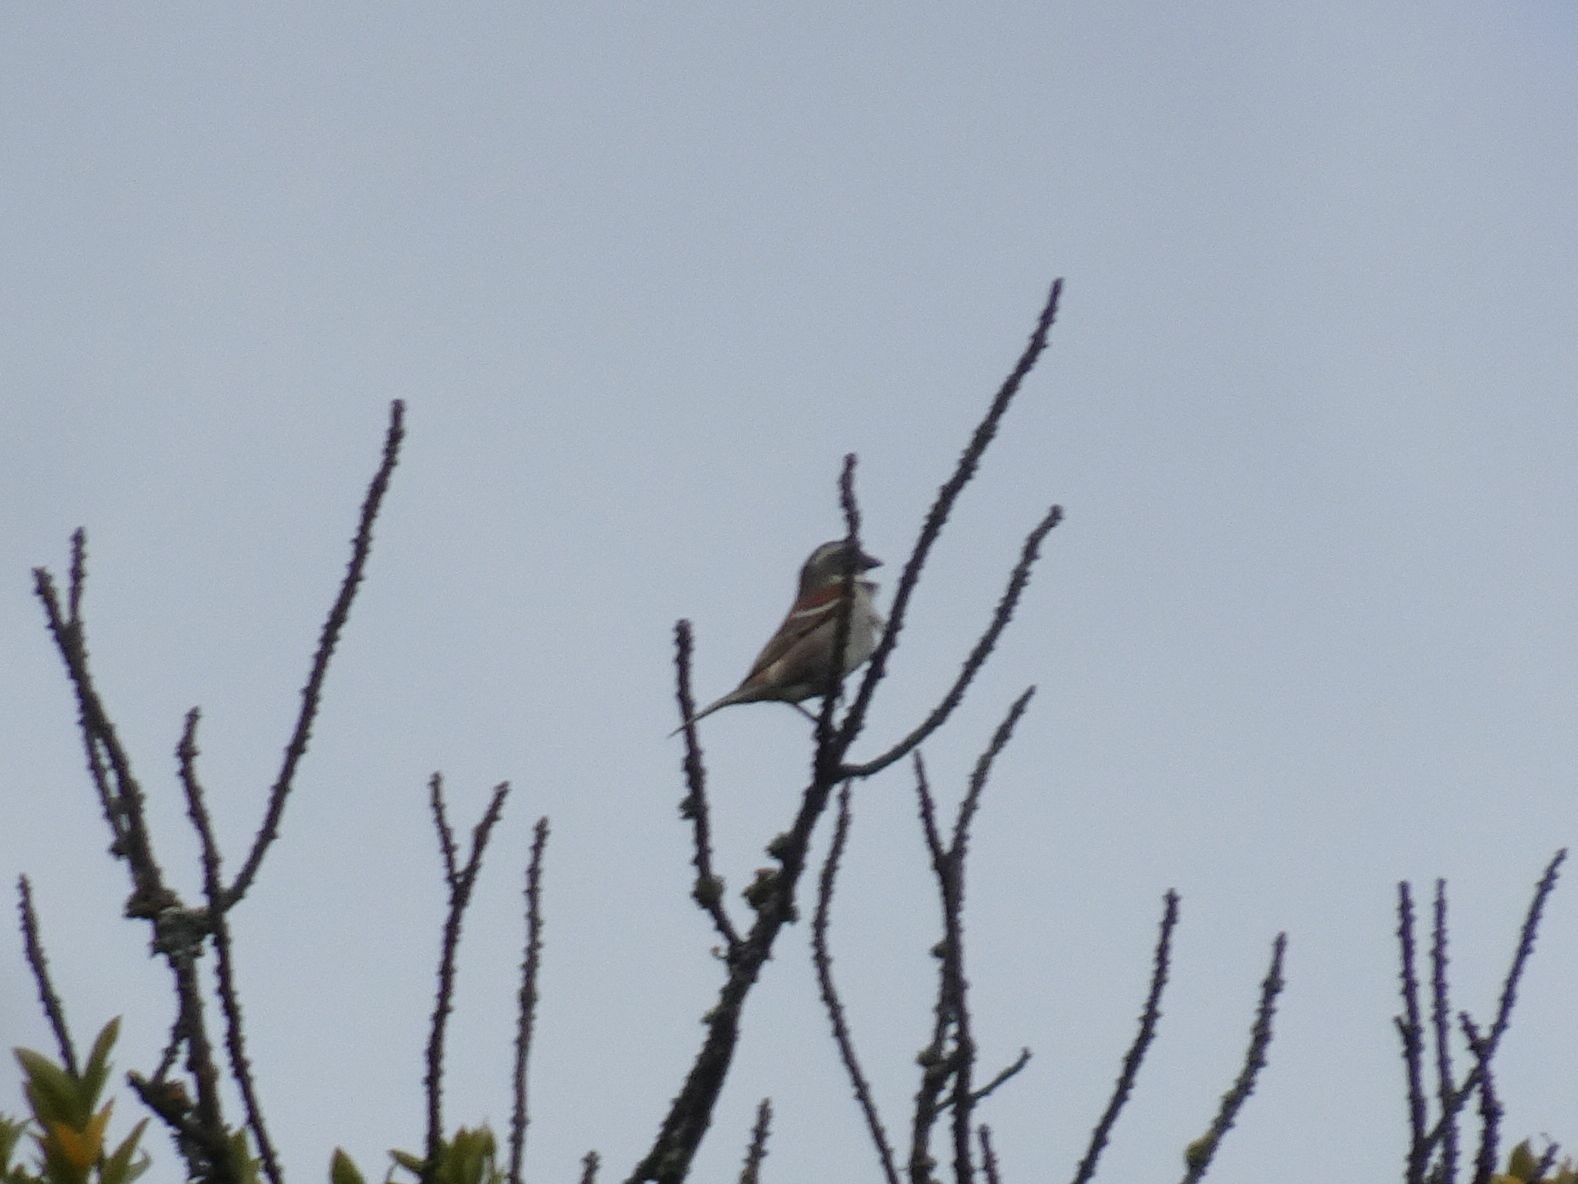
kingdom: Animalia
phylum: Chordata
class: Aves
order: Passeriformes
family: Passeridae
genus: Passer
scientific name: Passer melanurus
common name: Cape sparrow
